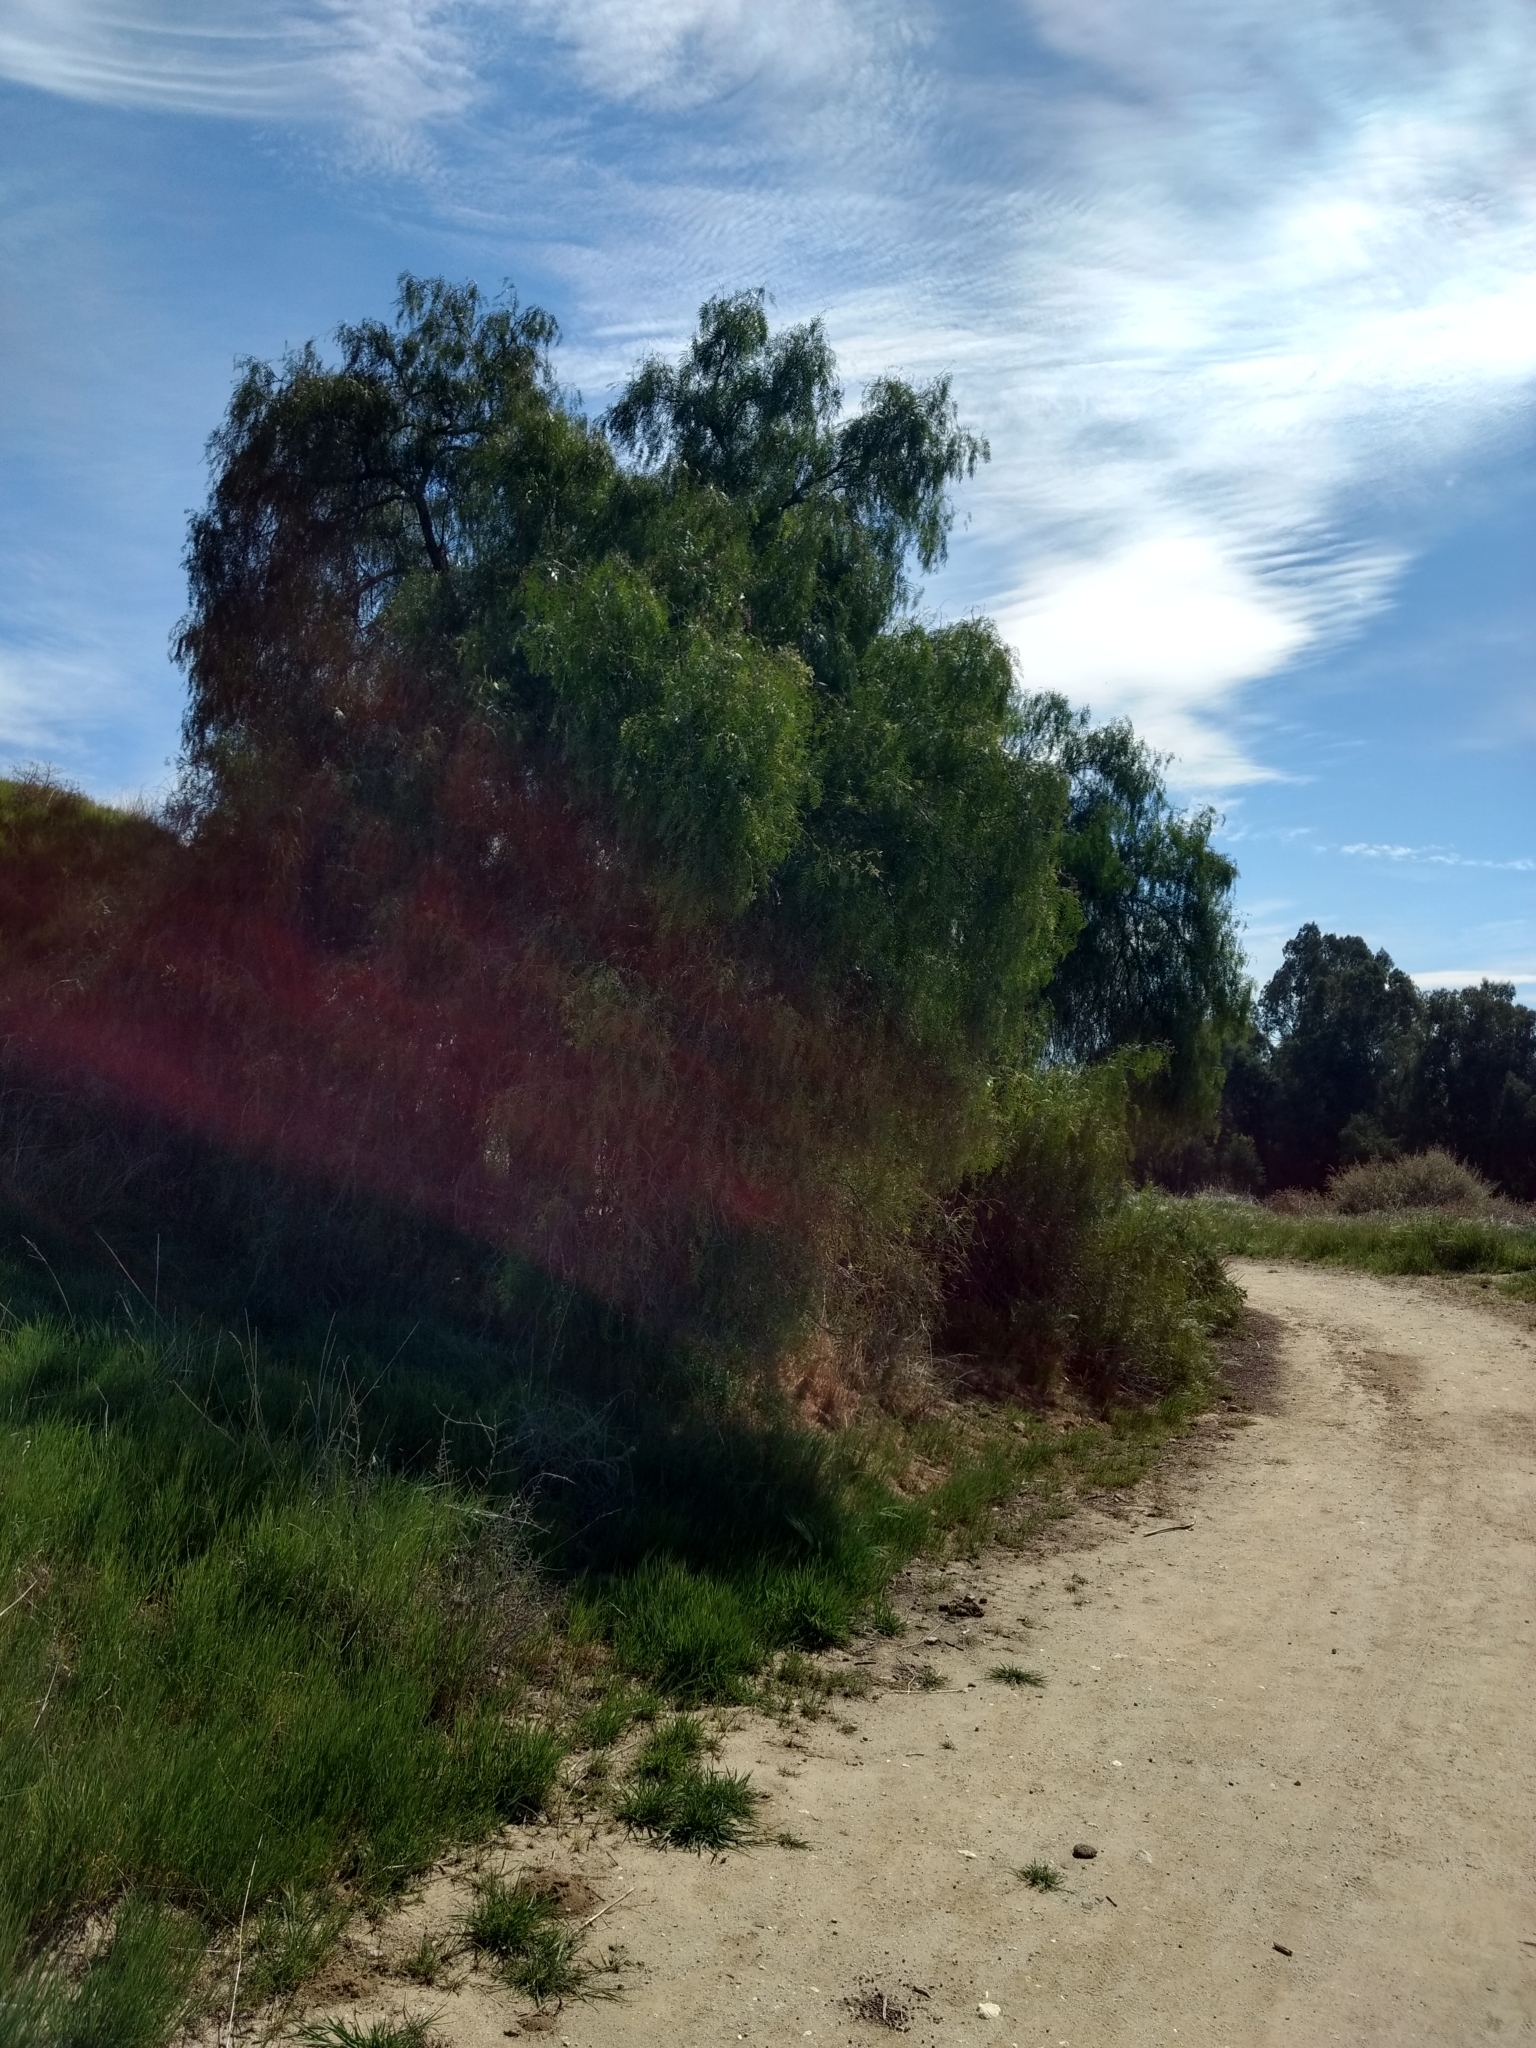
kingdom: Plantae
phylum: Tracheophyta
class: Magnoliopsida
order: Sapindales
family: Anacardiaceae
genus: Schinus
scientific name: Schinus molle
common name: Peruvian peppertree
